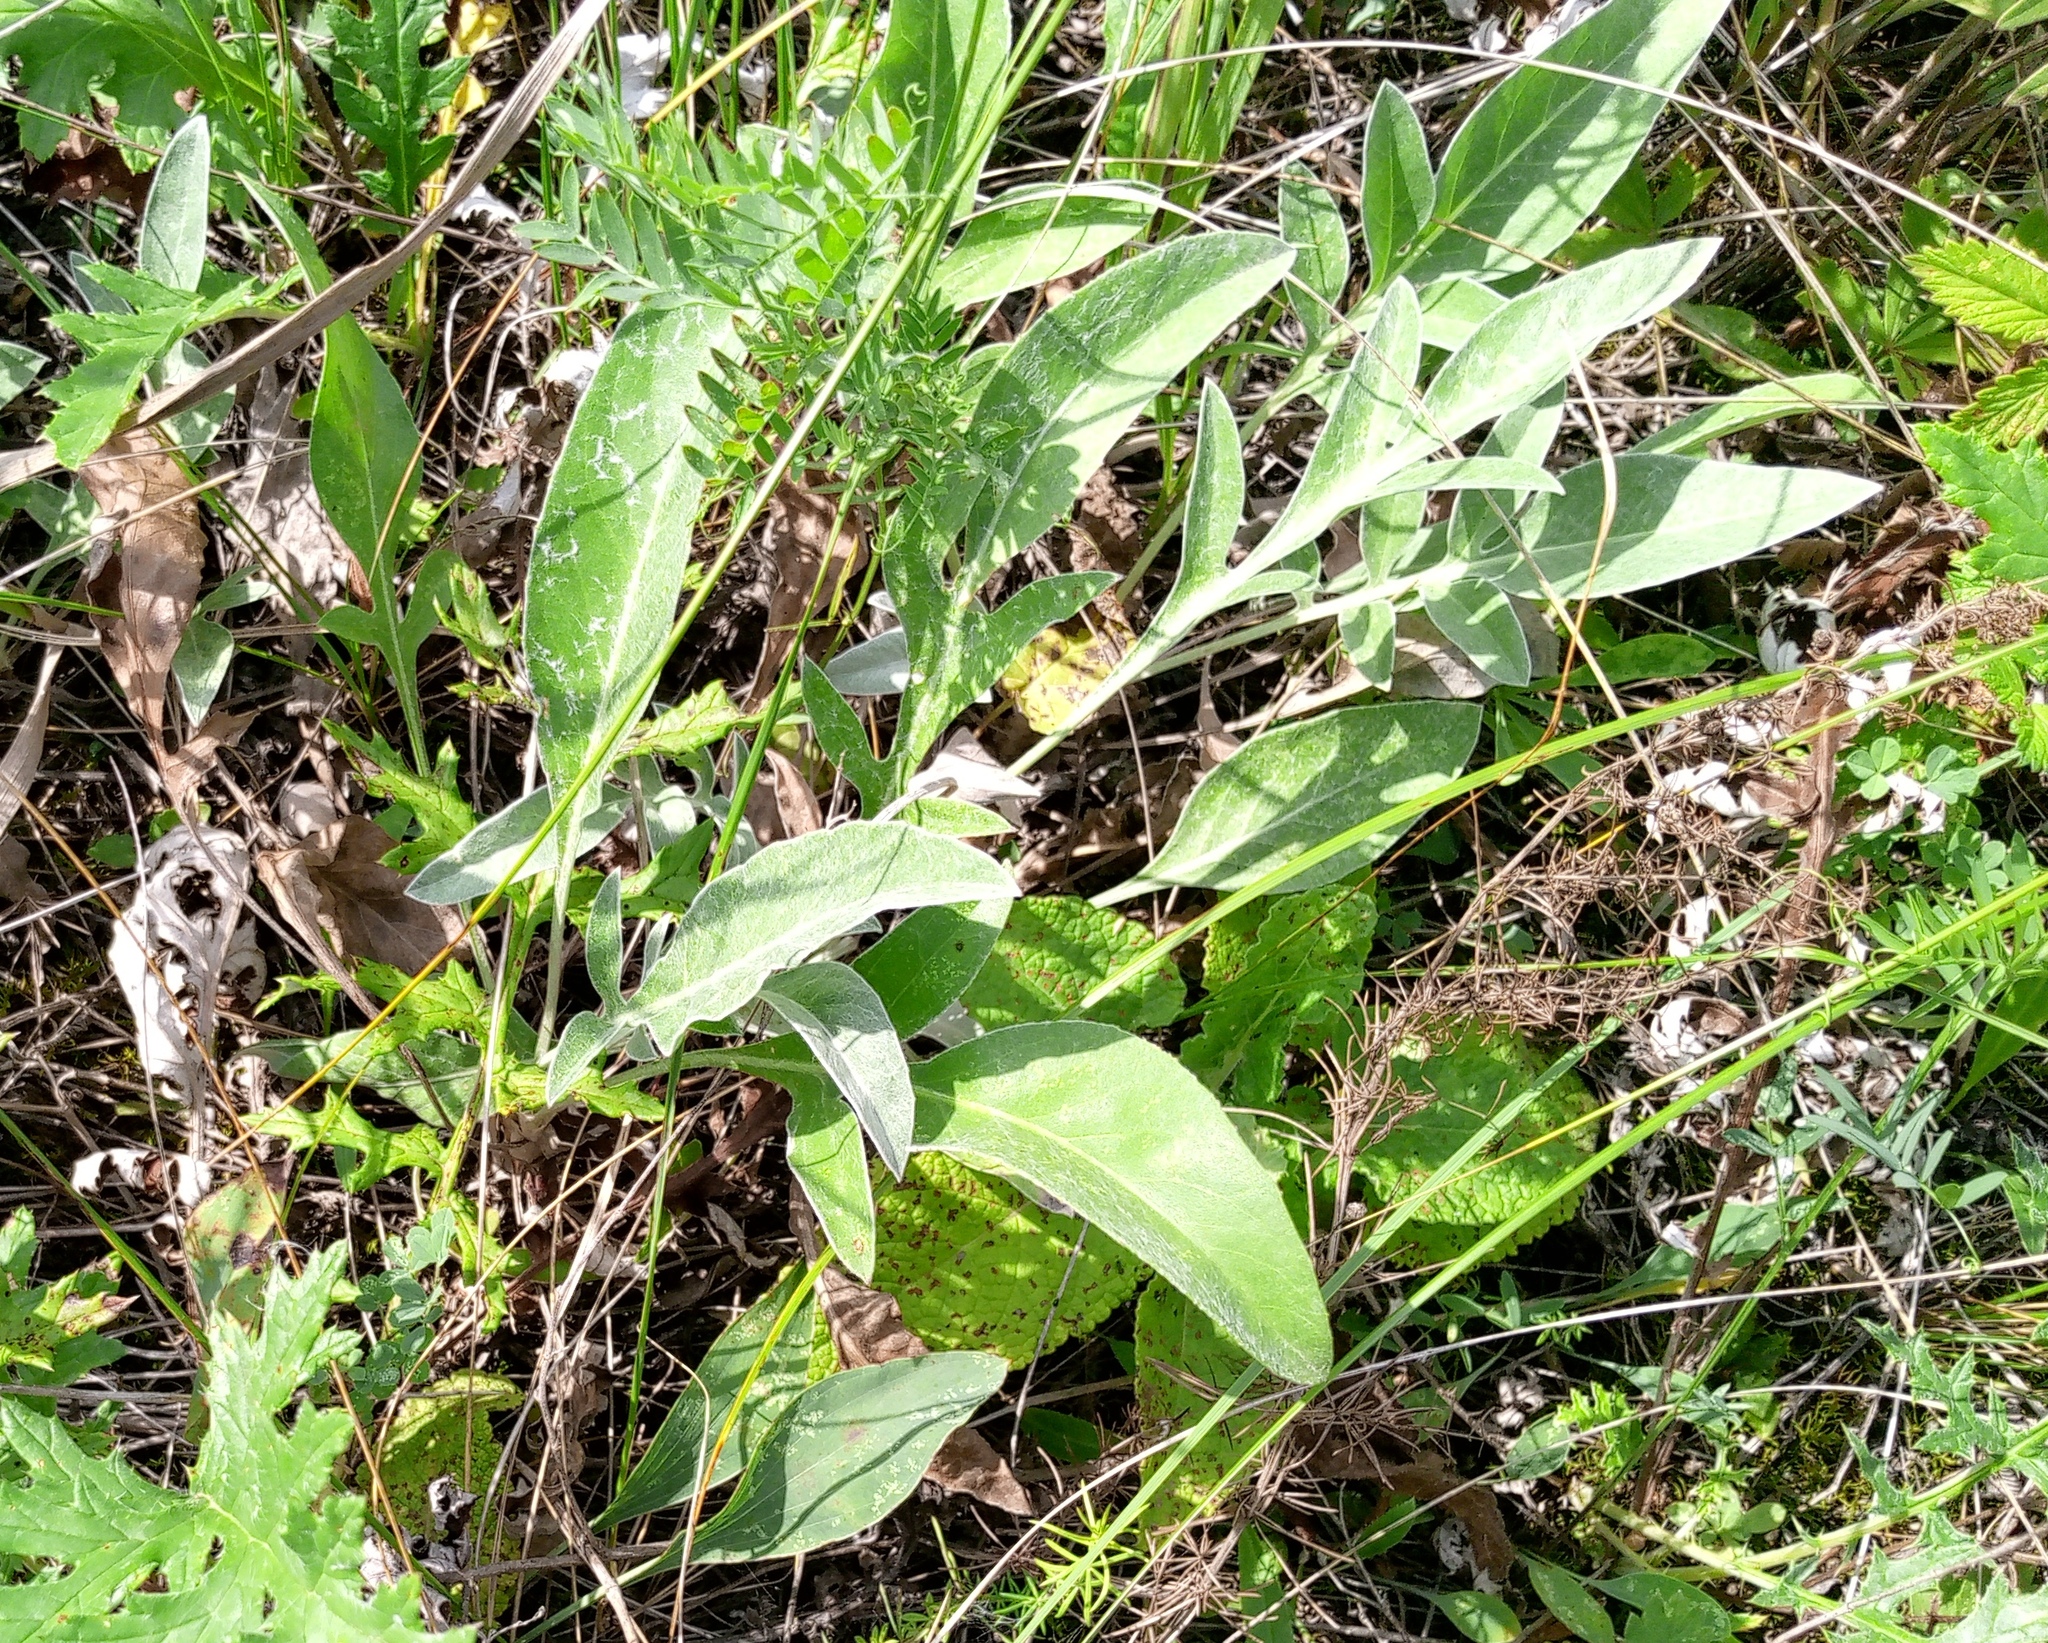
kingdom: Plantae
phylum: Tracheophyta
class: Magnoliopsida
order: Asterales
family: Asteraceae
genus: Psephellus
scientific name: Psephellus sumensis
